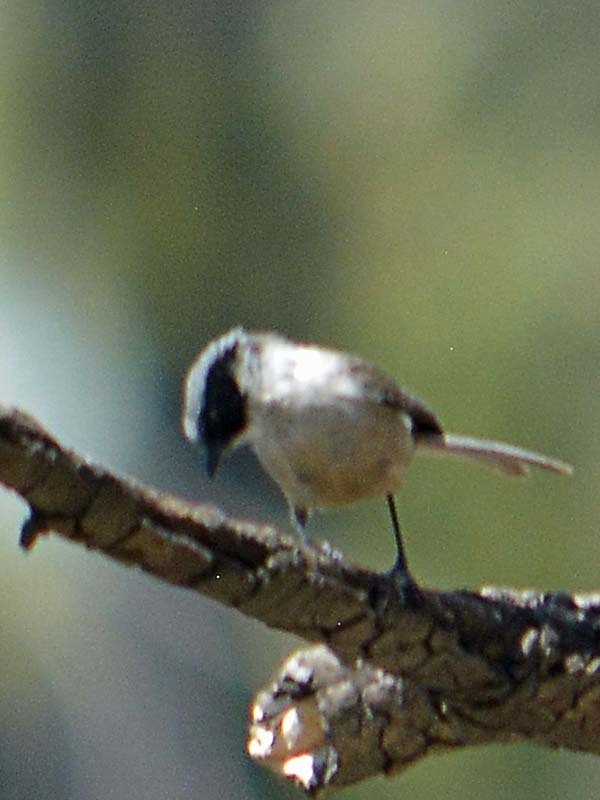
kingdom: Animalia
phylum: Chordata
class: Aves
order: Passeriformes
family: Aegithalidae
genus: Psaltriparus
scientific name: Psaltriparus minimus
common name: American bushtit
